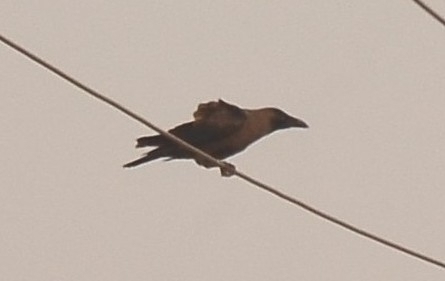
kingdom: Animalia
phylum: Chordata
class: Aves
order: Passeriformes
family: Corvidae
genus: Corvus
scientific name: Corvus splendens
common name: House crow
